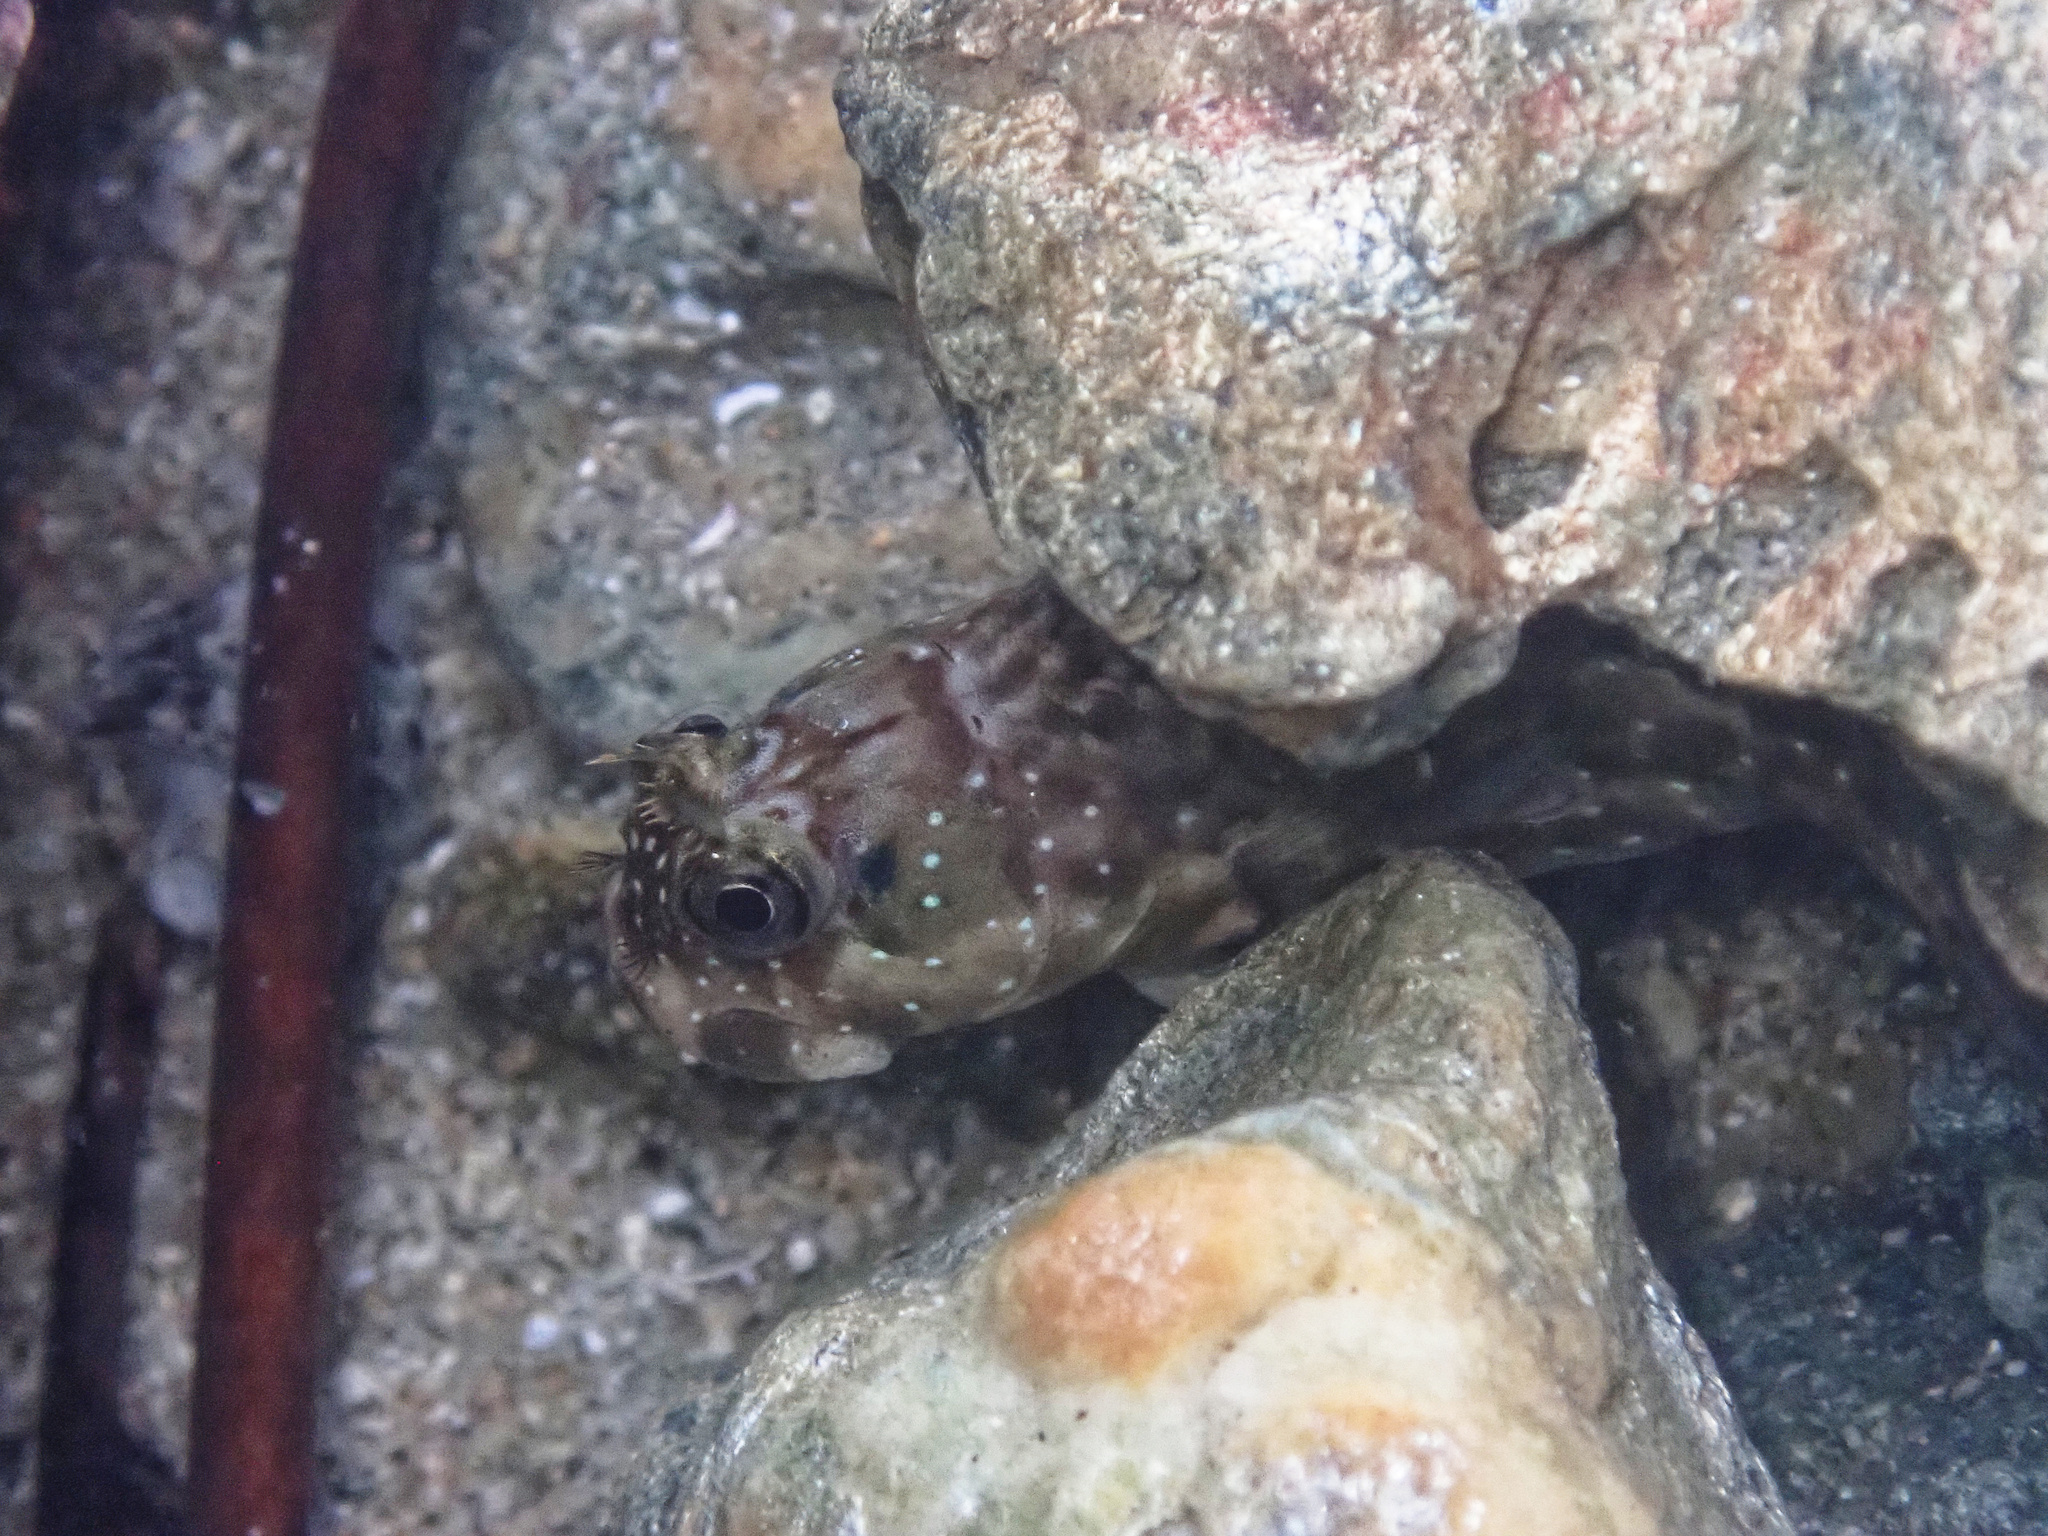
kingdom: Animalia
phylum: Chordata
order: Perciformes
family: Blenniidae
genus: Istiblennius
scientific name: Istiblennius meleagris
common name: Peacock rockskipper
